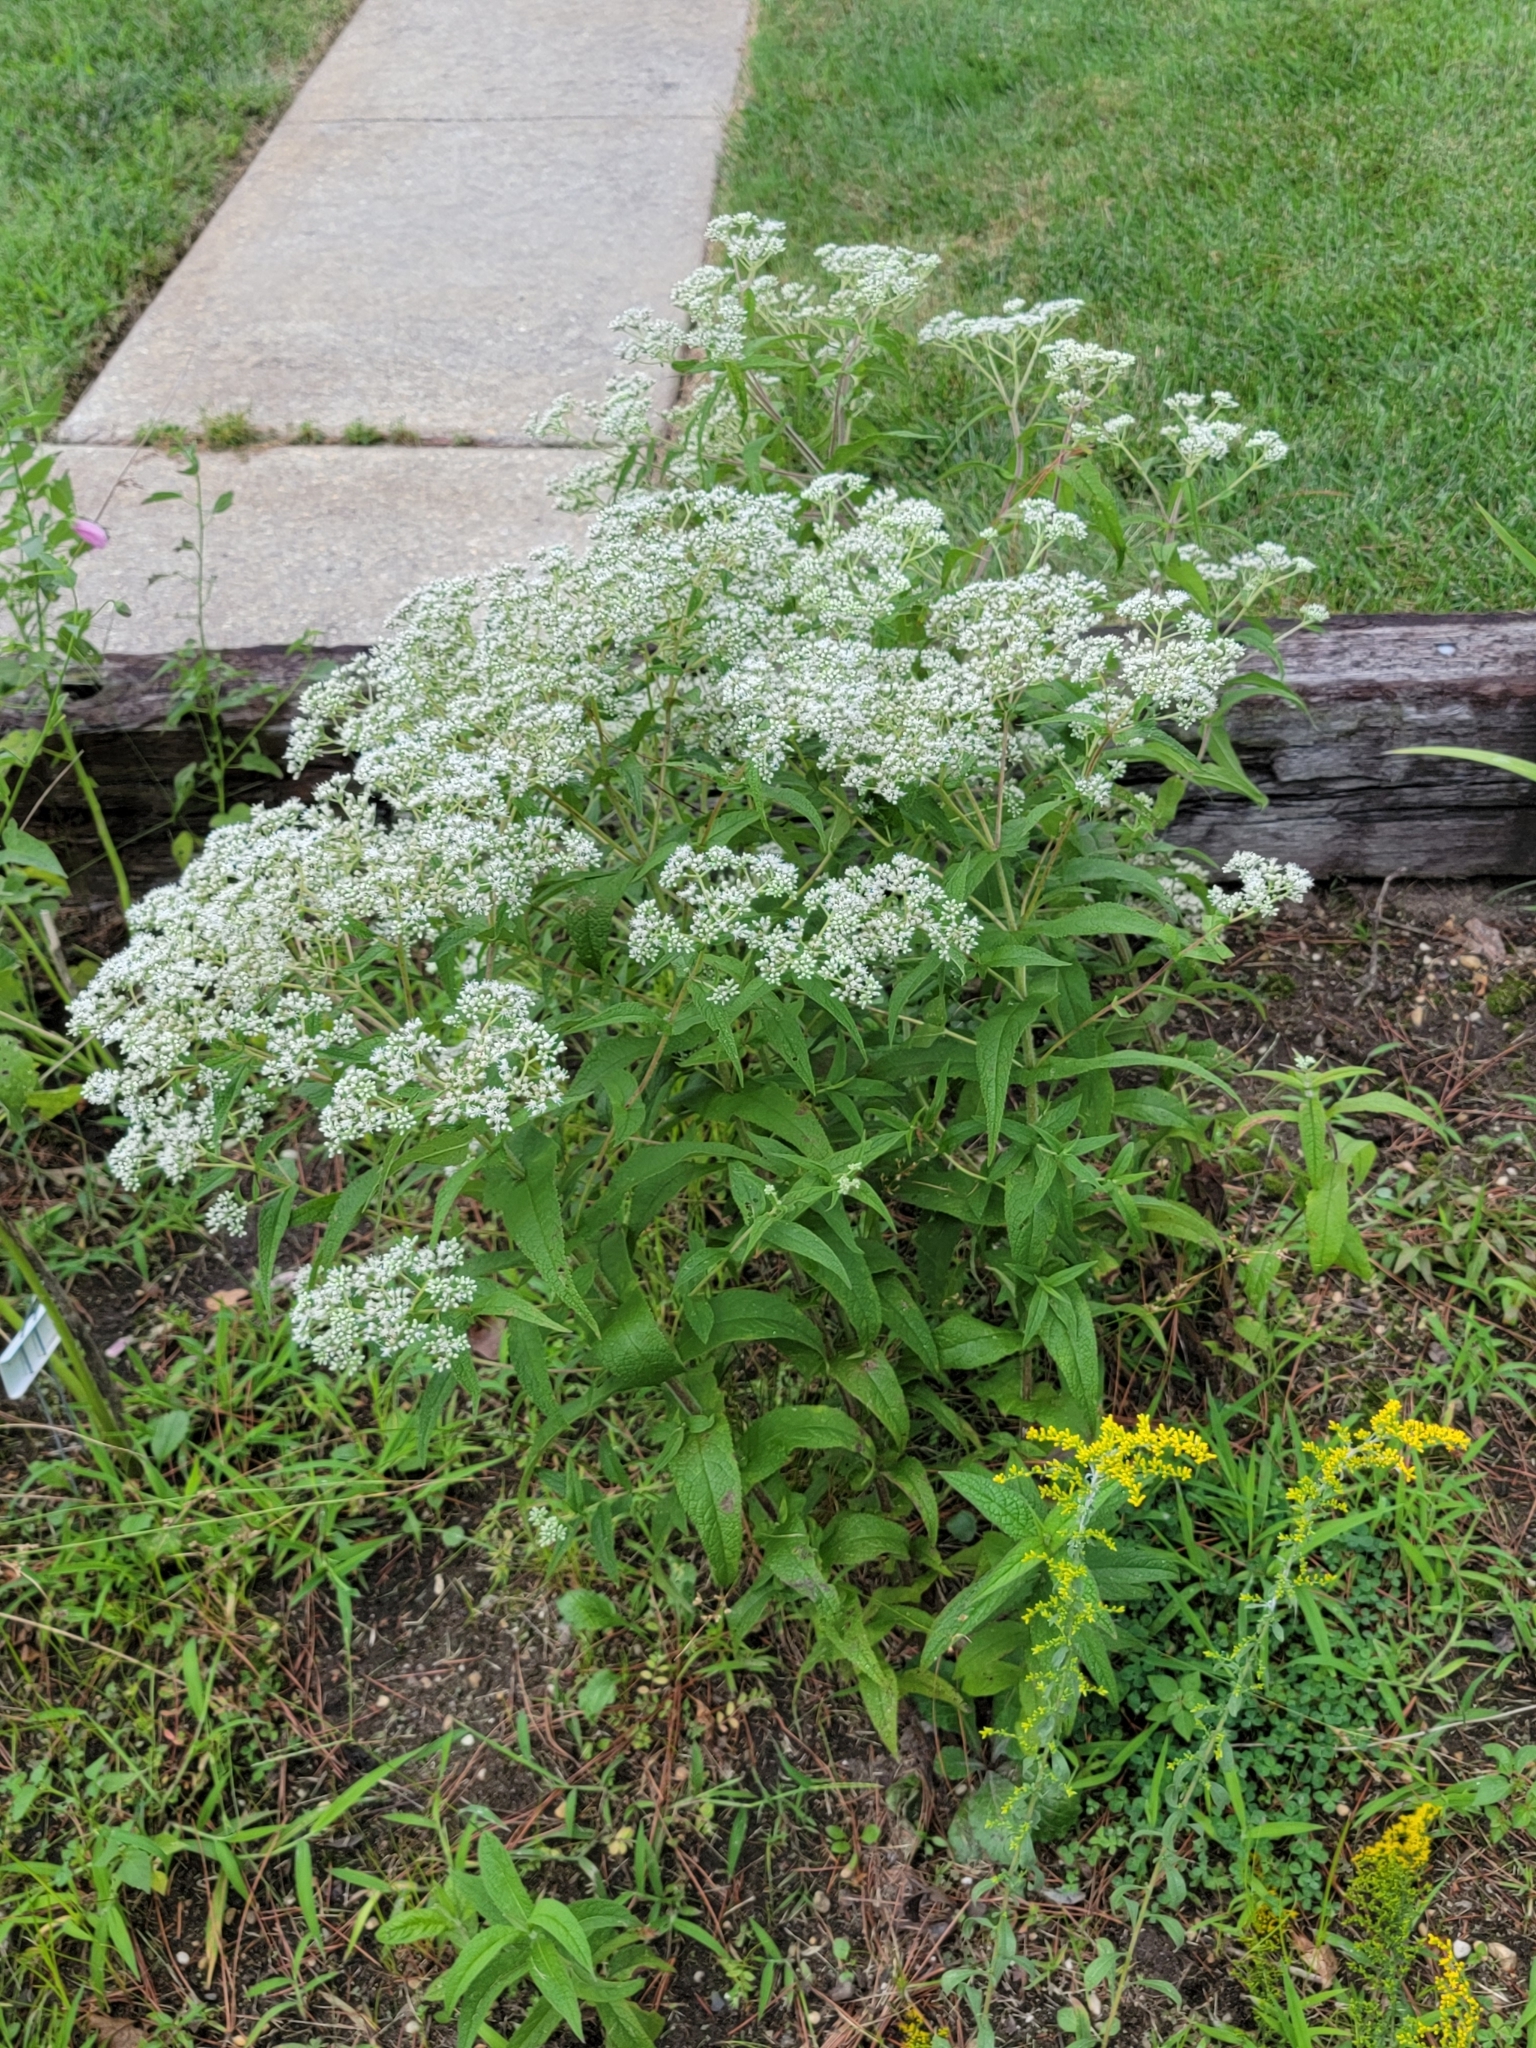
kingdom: Plantae
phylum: Tracheophyta
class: Magnoliopsida
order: Asterales
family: Asteraceae
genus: Eupatorium
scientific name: Eupatorium perfoliatum
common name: Boneset
